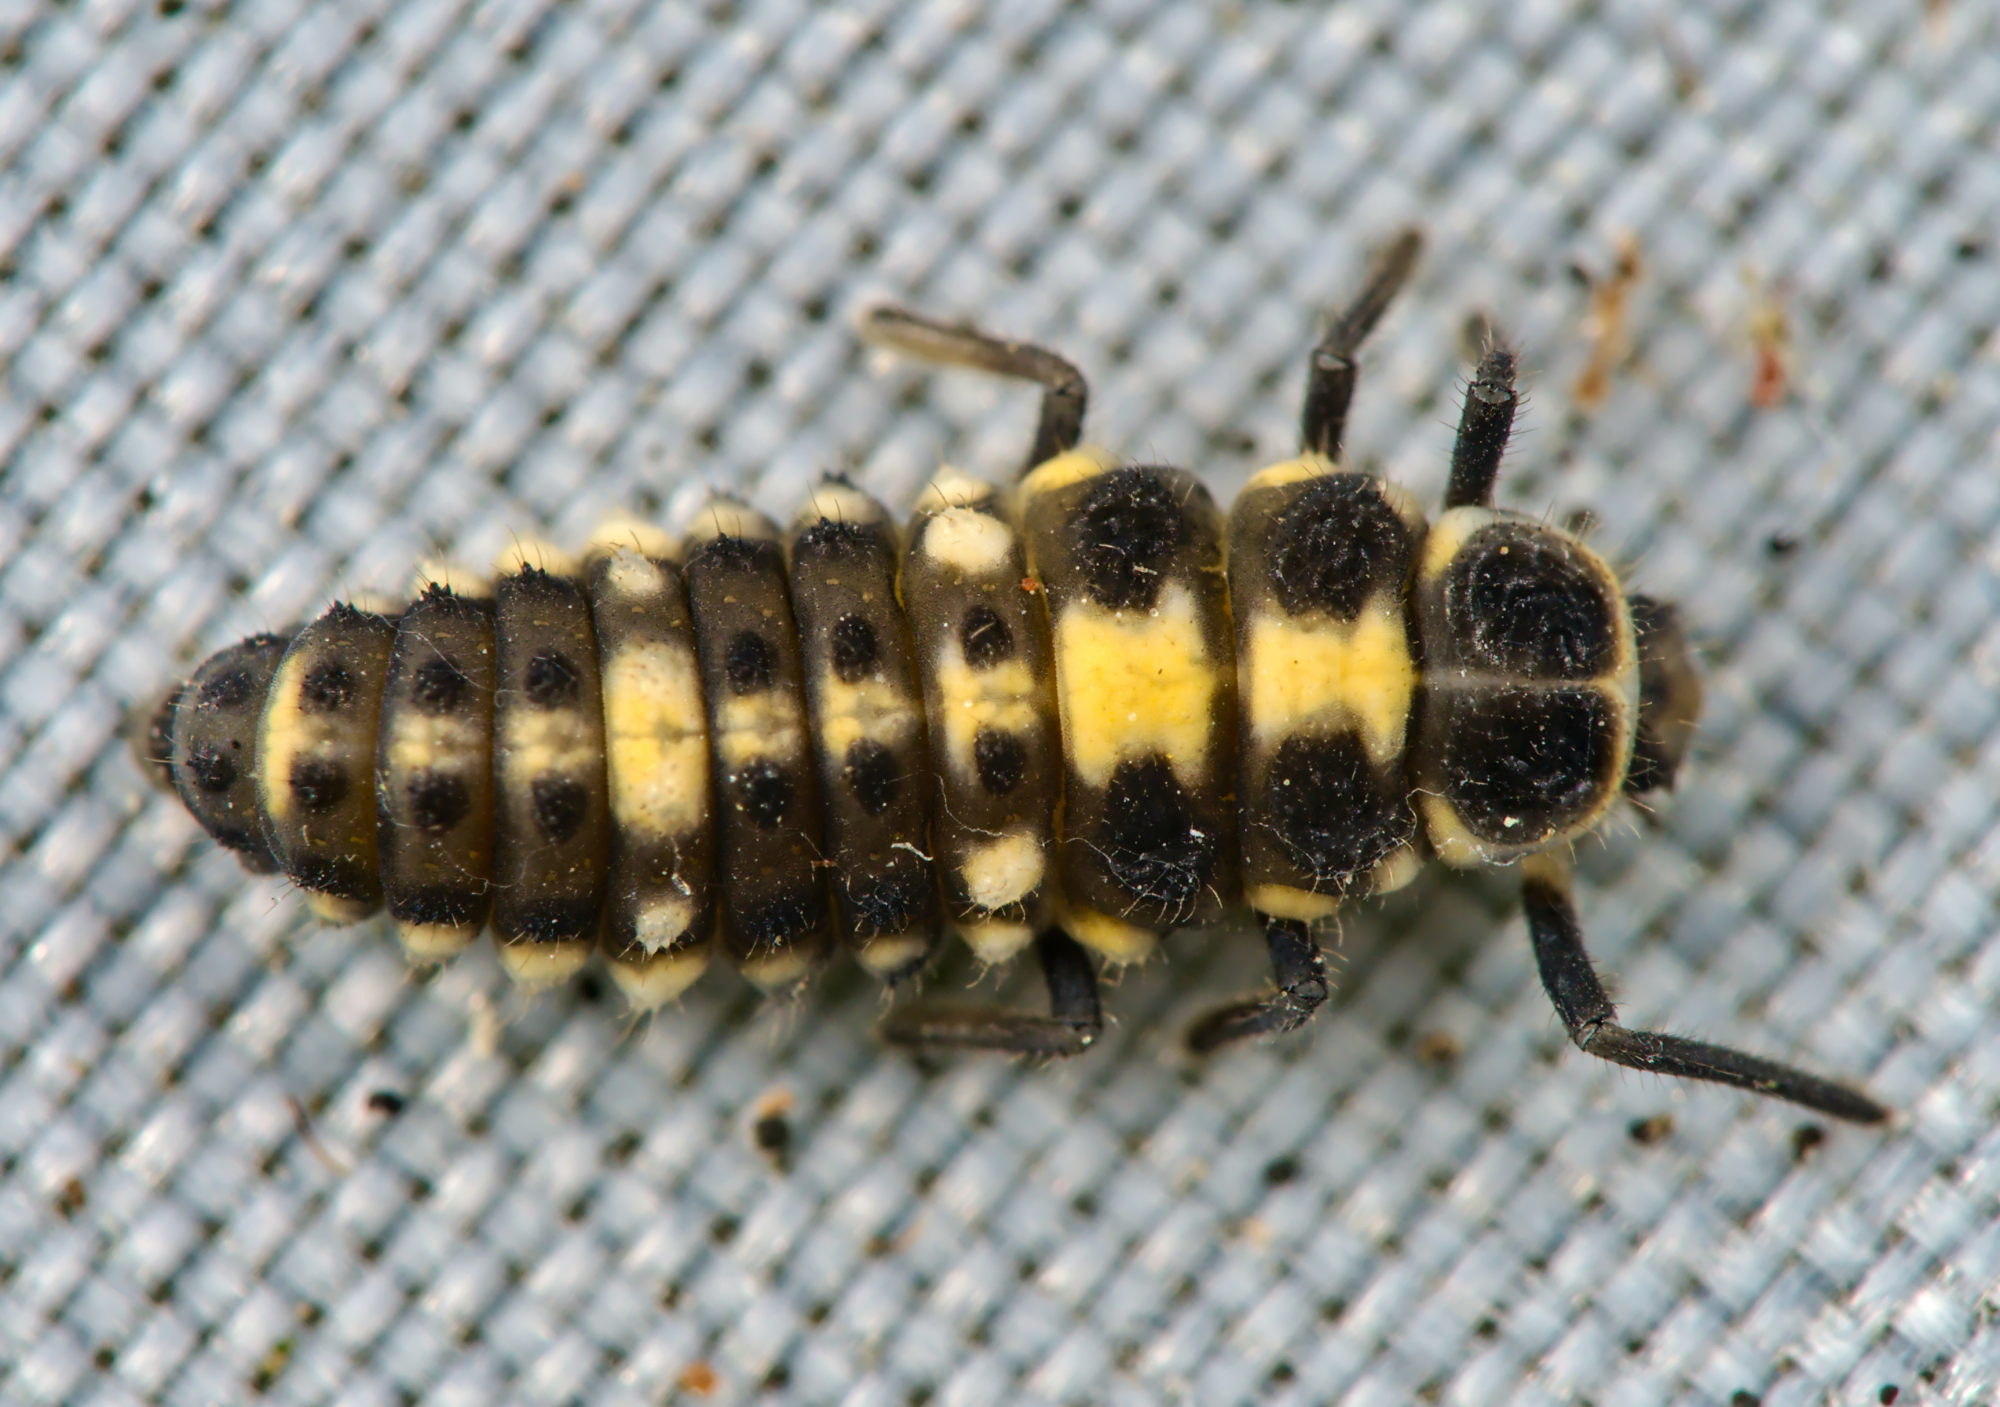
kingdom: Animalia
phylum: Arthropoda
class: Insecta
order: Coleoptera
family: Coccinellidae
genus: Propylaea
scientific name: Propylaea quatuordecimpunctata
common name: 14-spotted ladybird beetle
